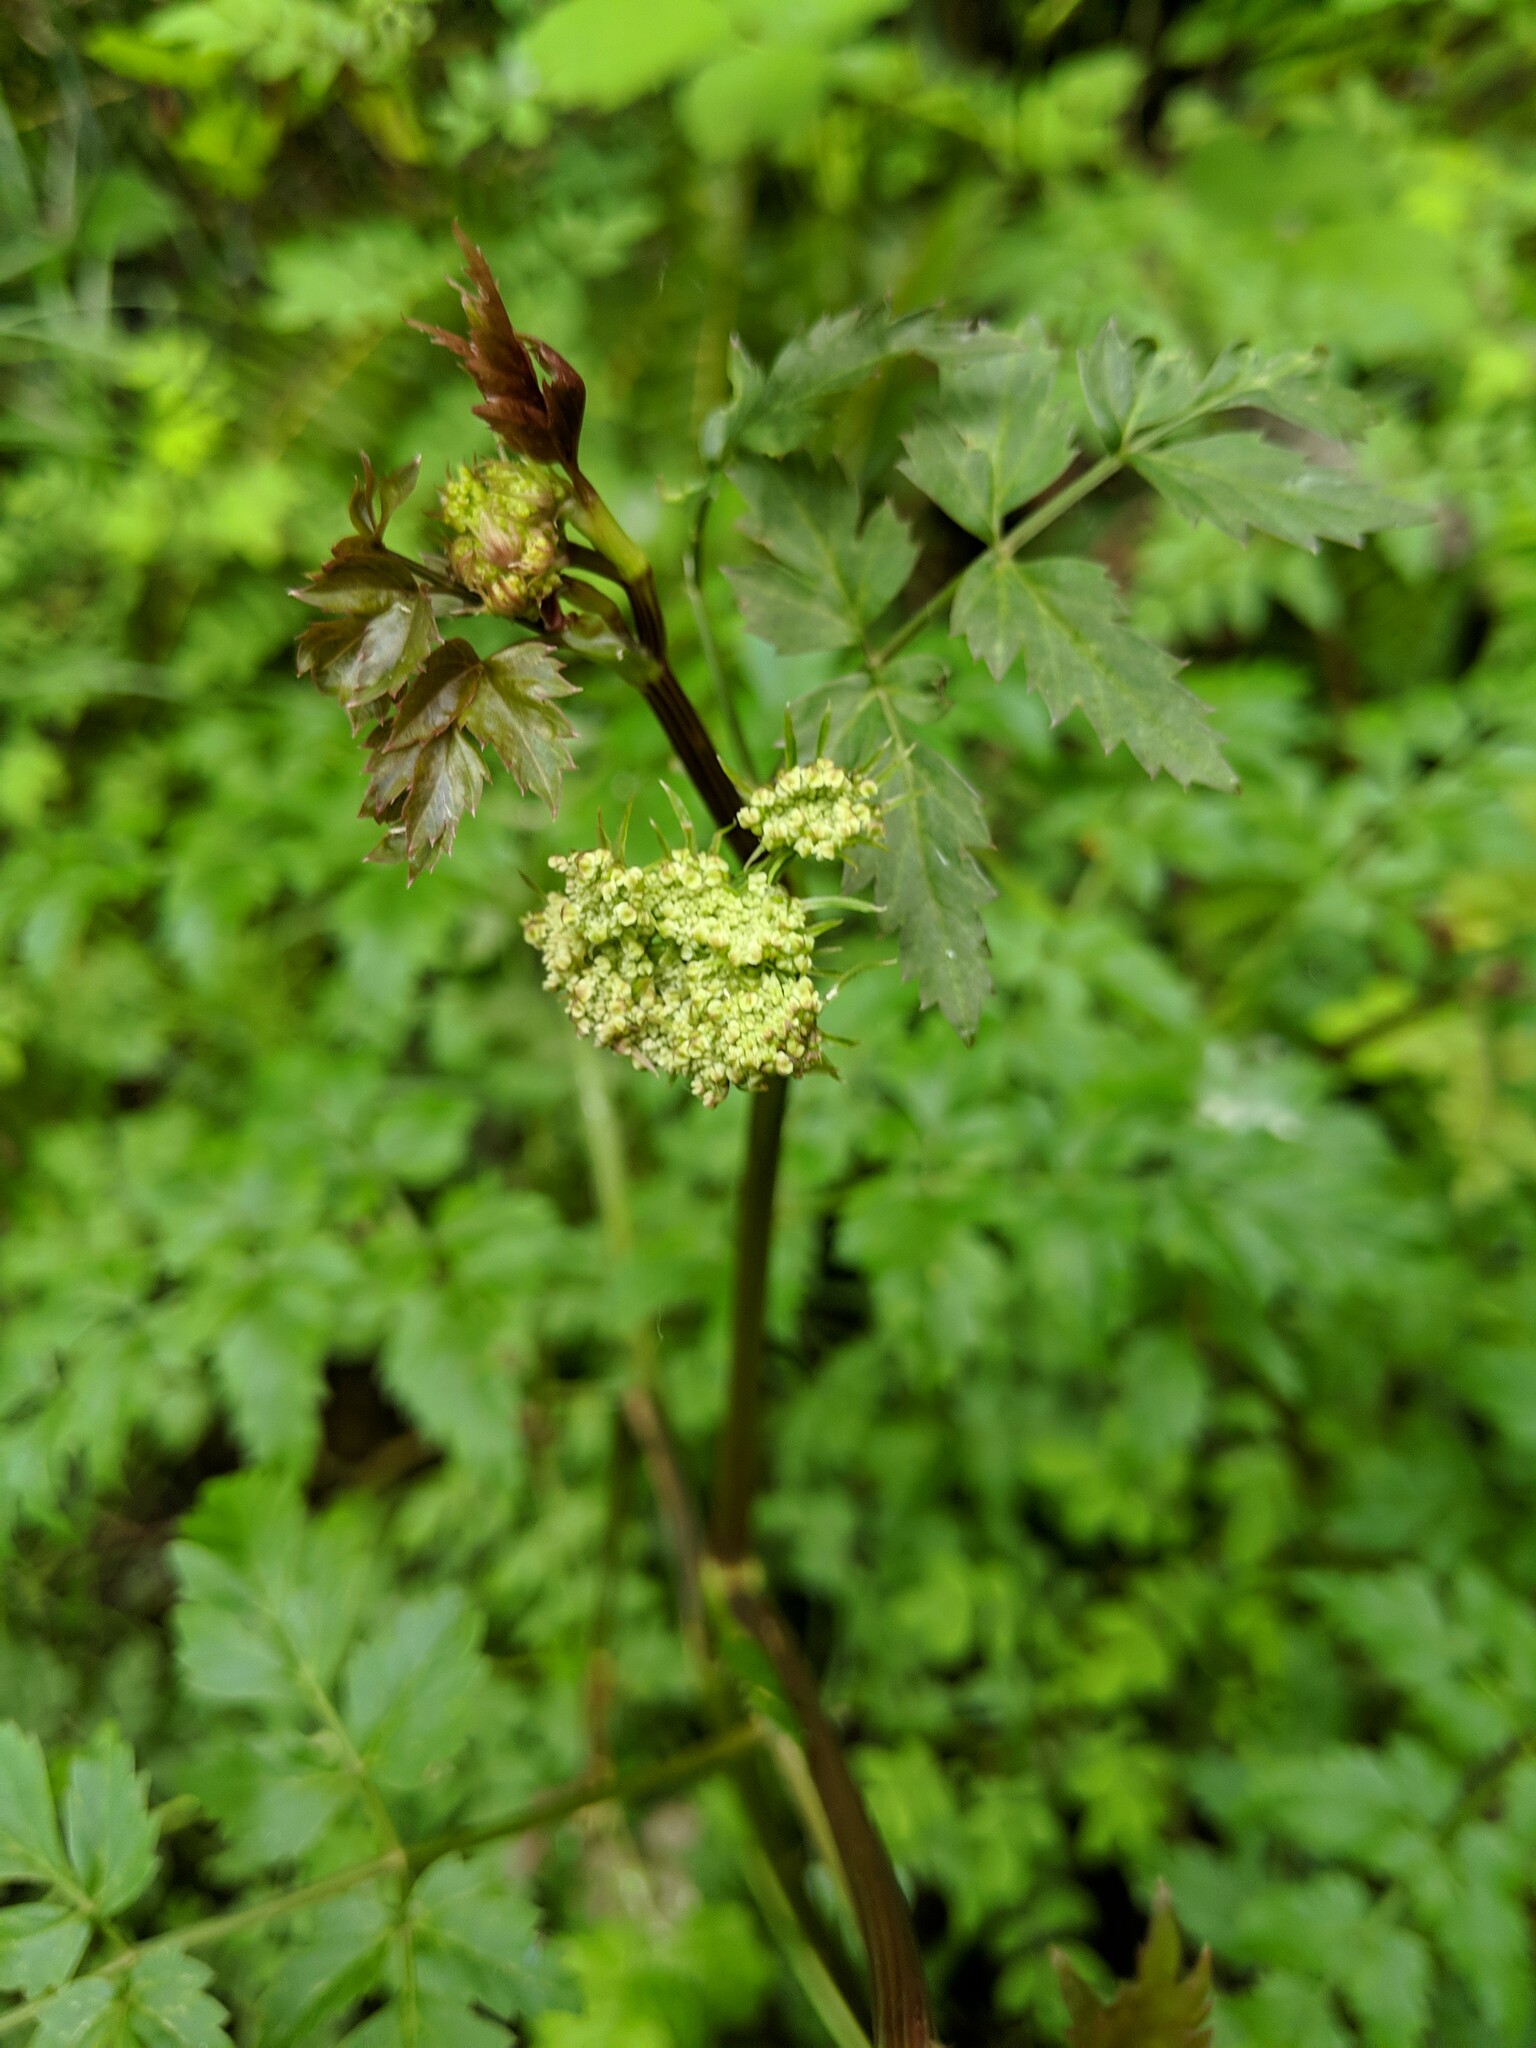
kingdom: Plantae
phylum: Tracheophyta
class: Magnoliopsida
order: Apiales
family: Apiaceae
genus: Oenanthe
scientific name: Oenanthe sarmentosa
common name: American water-parsley
